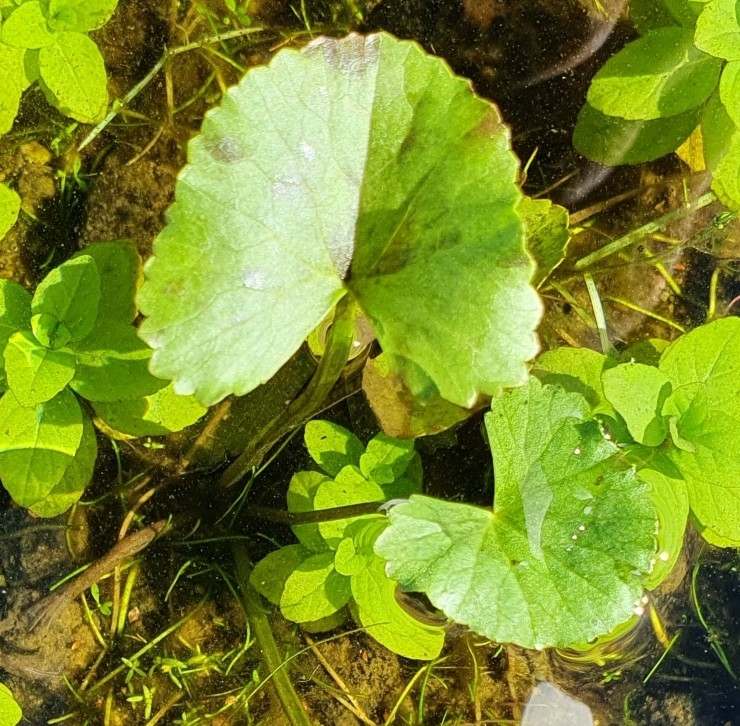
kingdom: Plantae
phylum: Tracheophyta
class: Magnoliopsida
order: Ranunculales
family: Ranunculaceae
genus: Caltha
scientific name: Caltha palustris
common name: Marsh marigold
